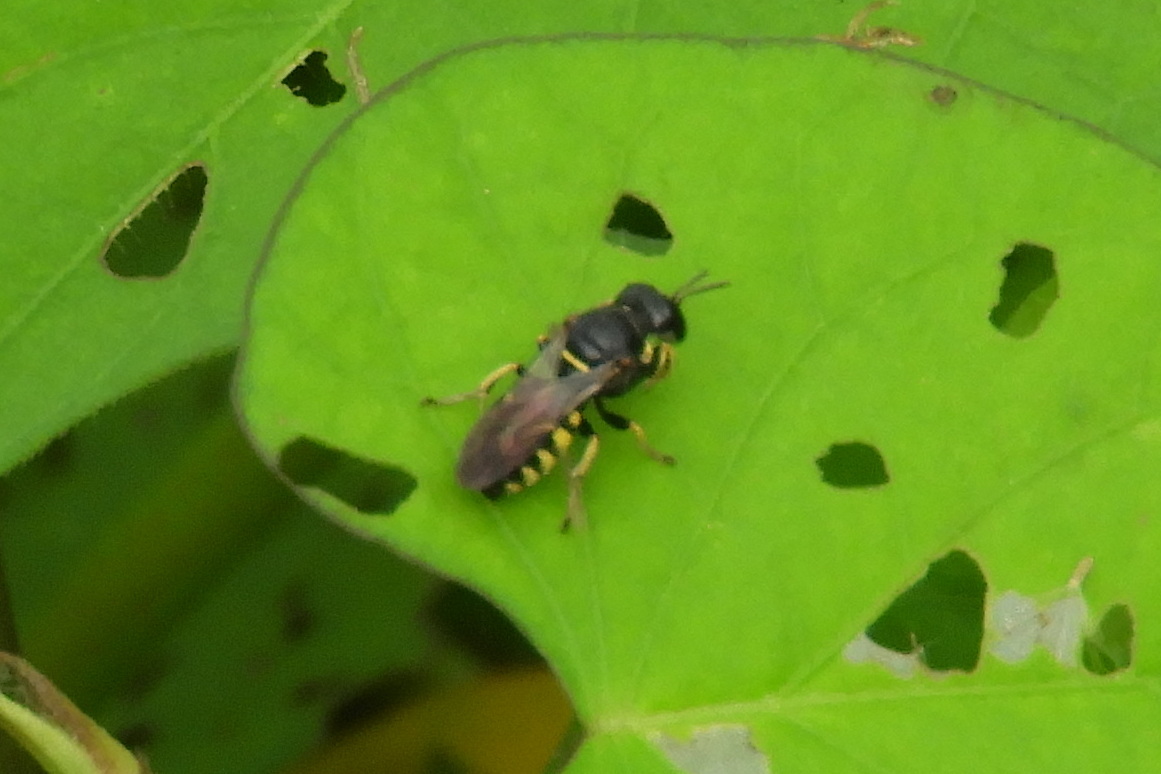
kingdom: Animalia
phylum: Arthropoda
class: Insecta
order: Hymenoptera
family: Crabronidae
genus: Anacrabro
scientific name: Anacrabro ocellatus
